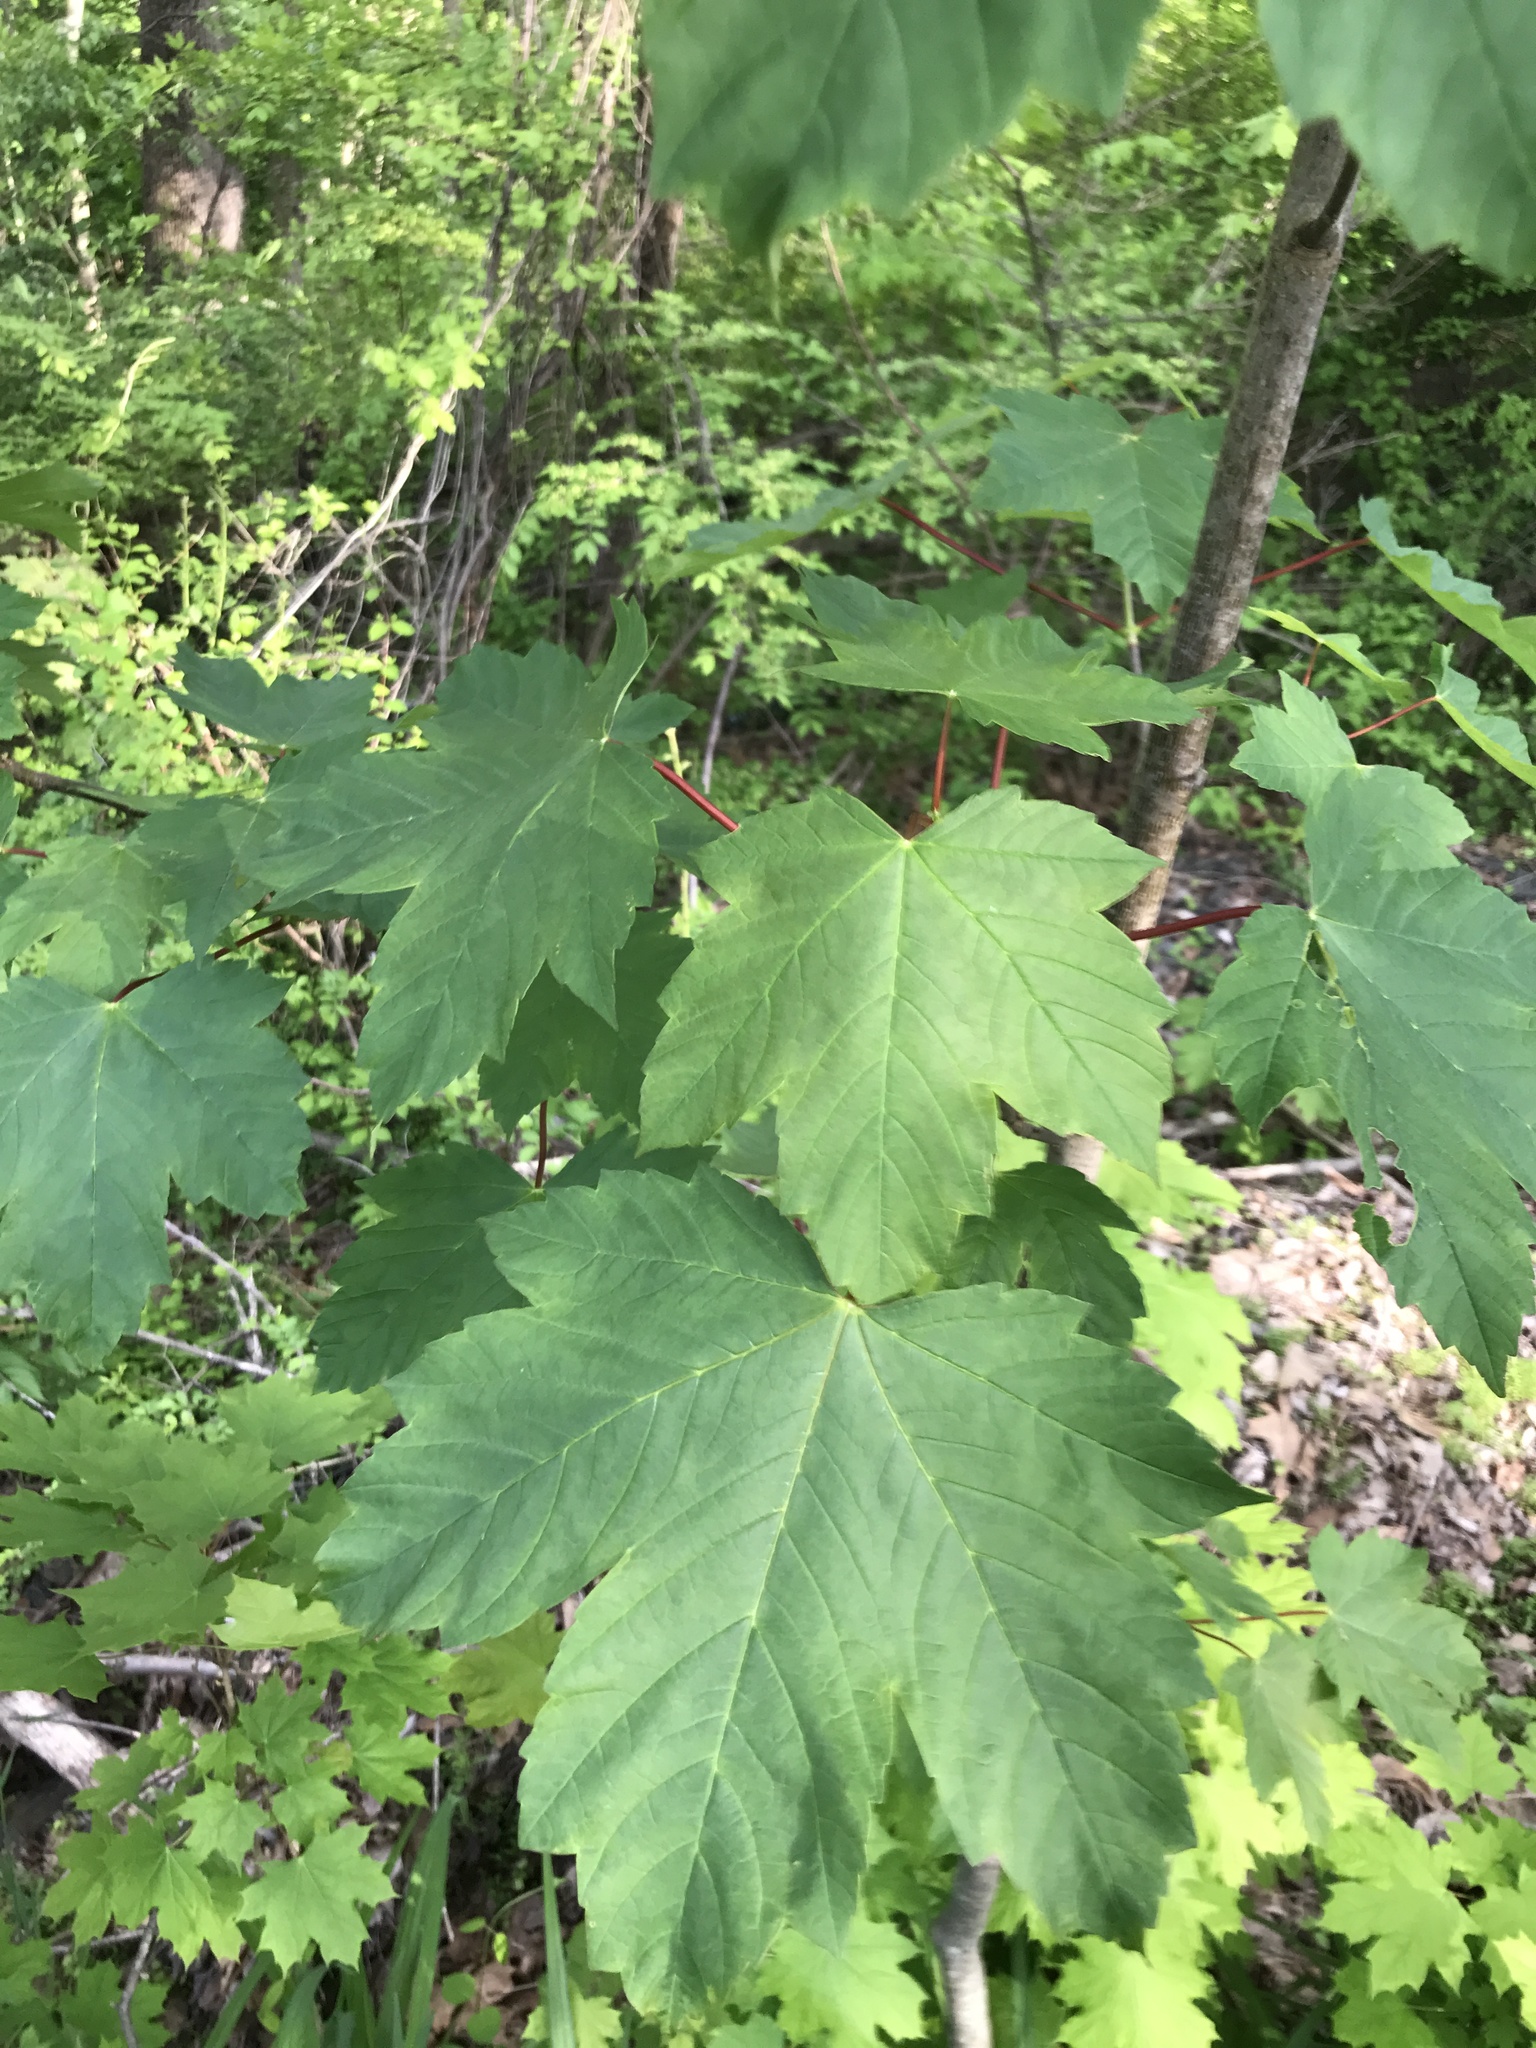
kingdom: Plantae
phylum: Tracheophyta
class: Magnoliopsida
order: Sapindales
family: Sapindaceae
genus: Acer
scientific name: Acer pseudoplatanus
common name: Sycamore
